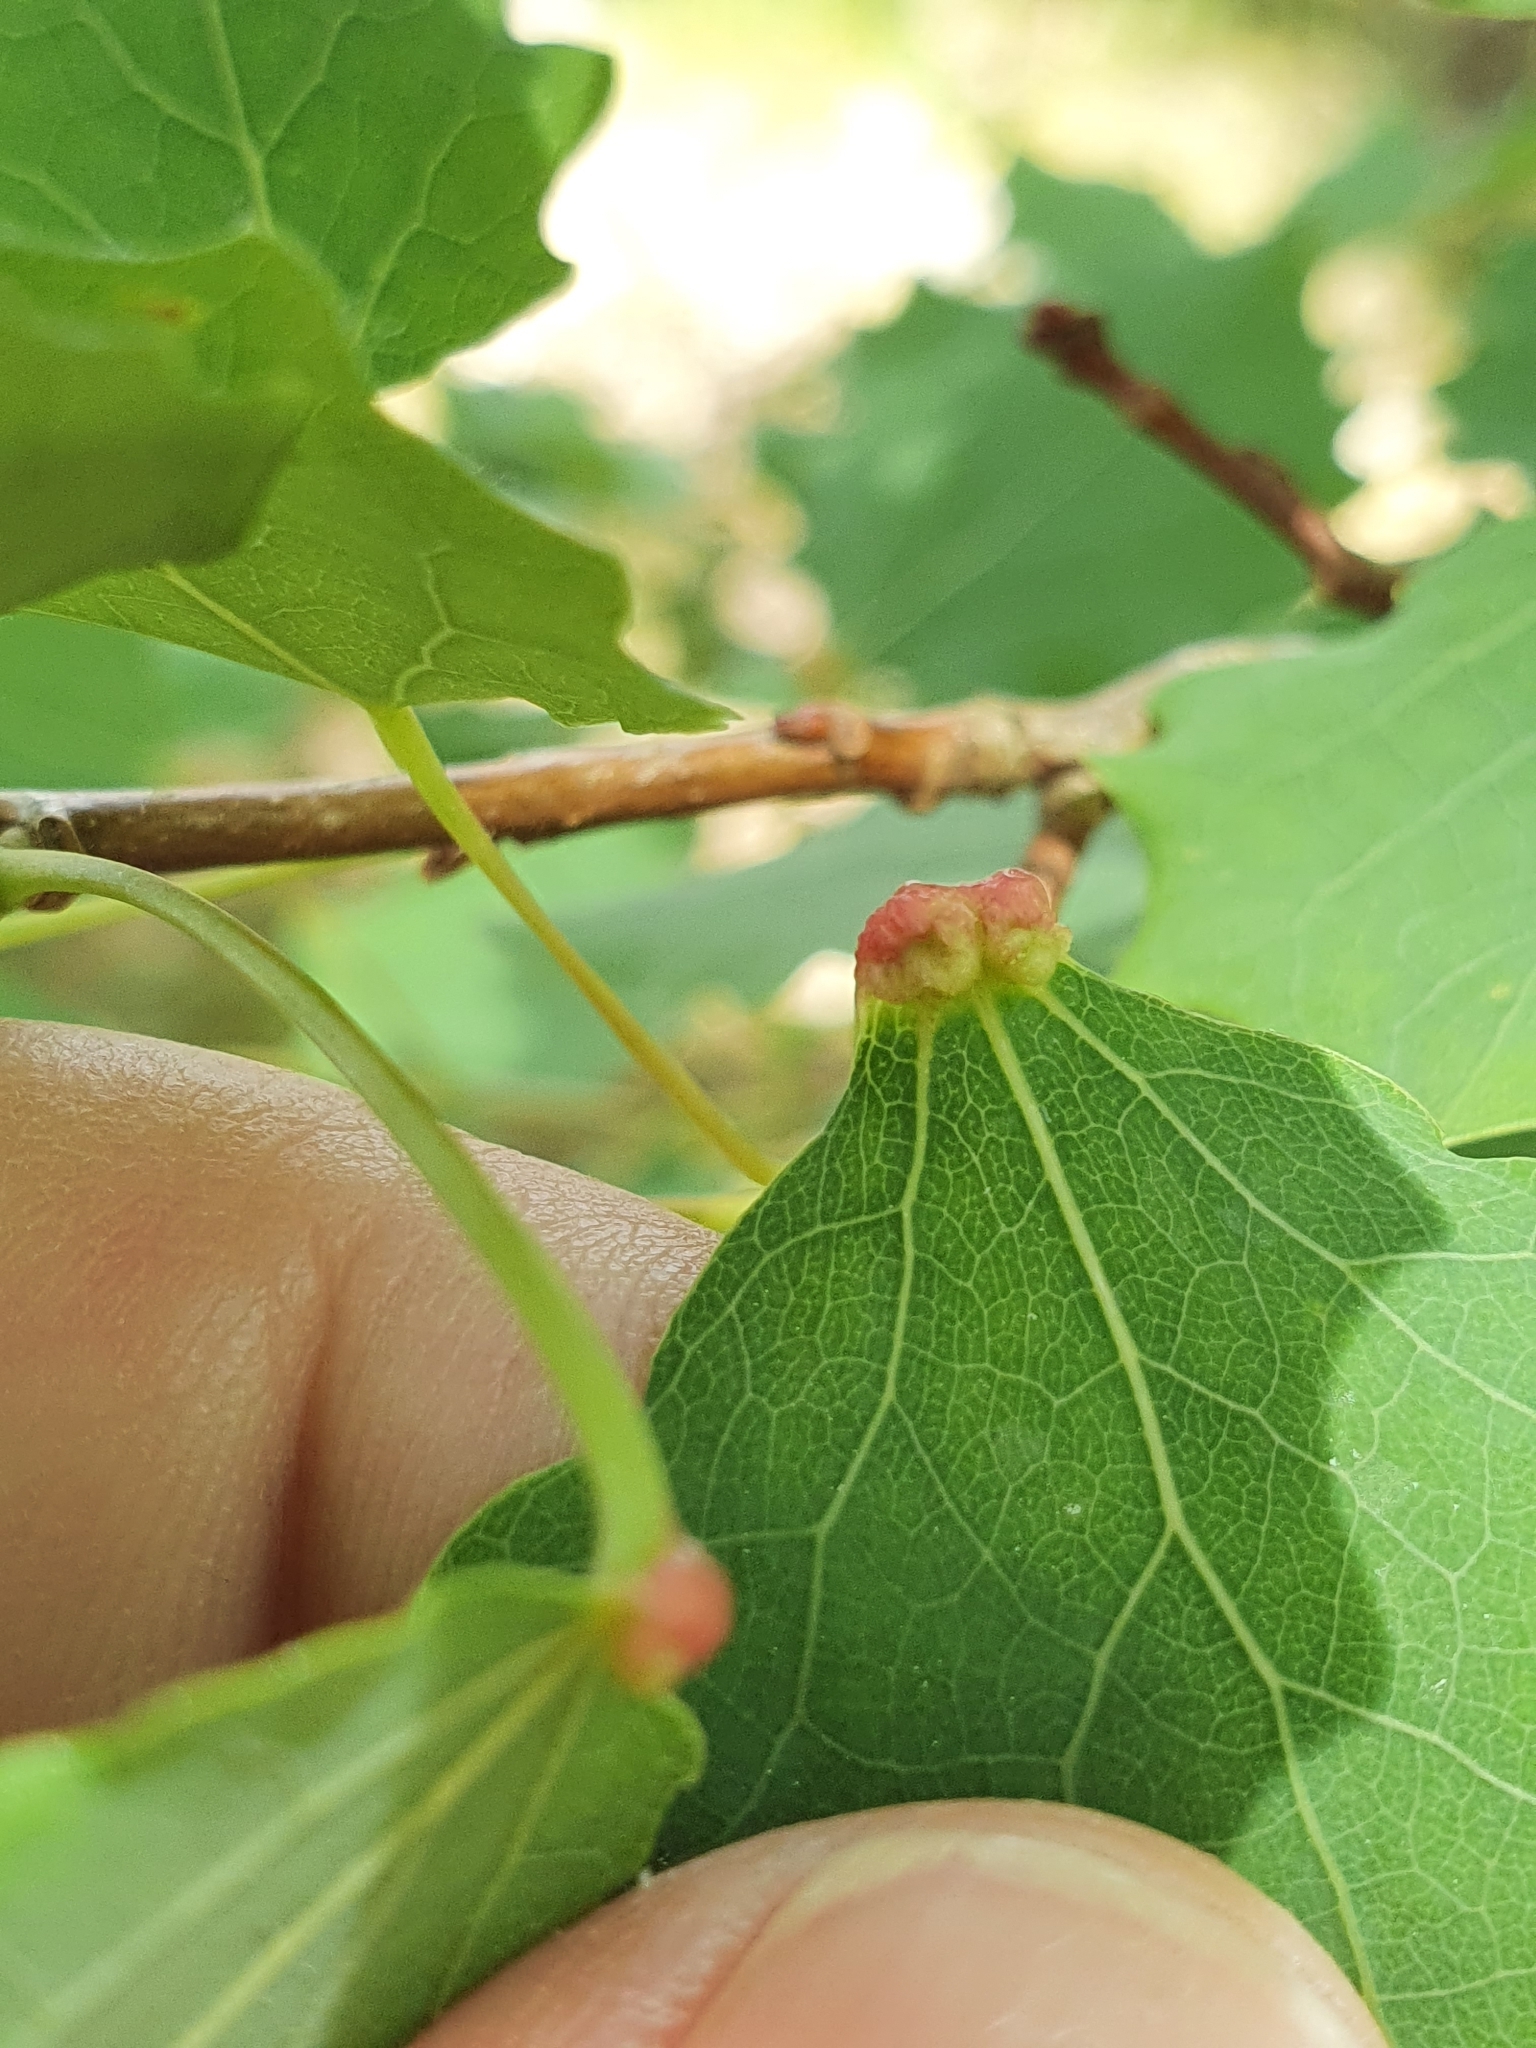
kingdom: Animalia
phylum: Arthropoda
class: Arachnida
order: Trombidiformes
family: Eriophyidae
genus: Eriophyes
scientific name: Eriophyes diversipunctatus
